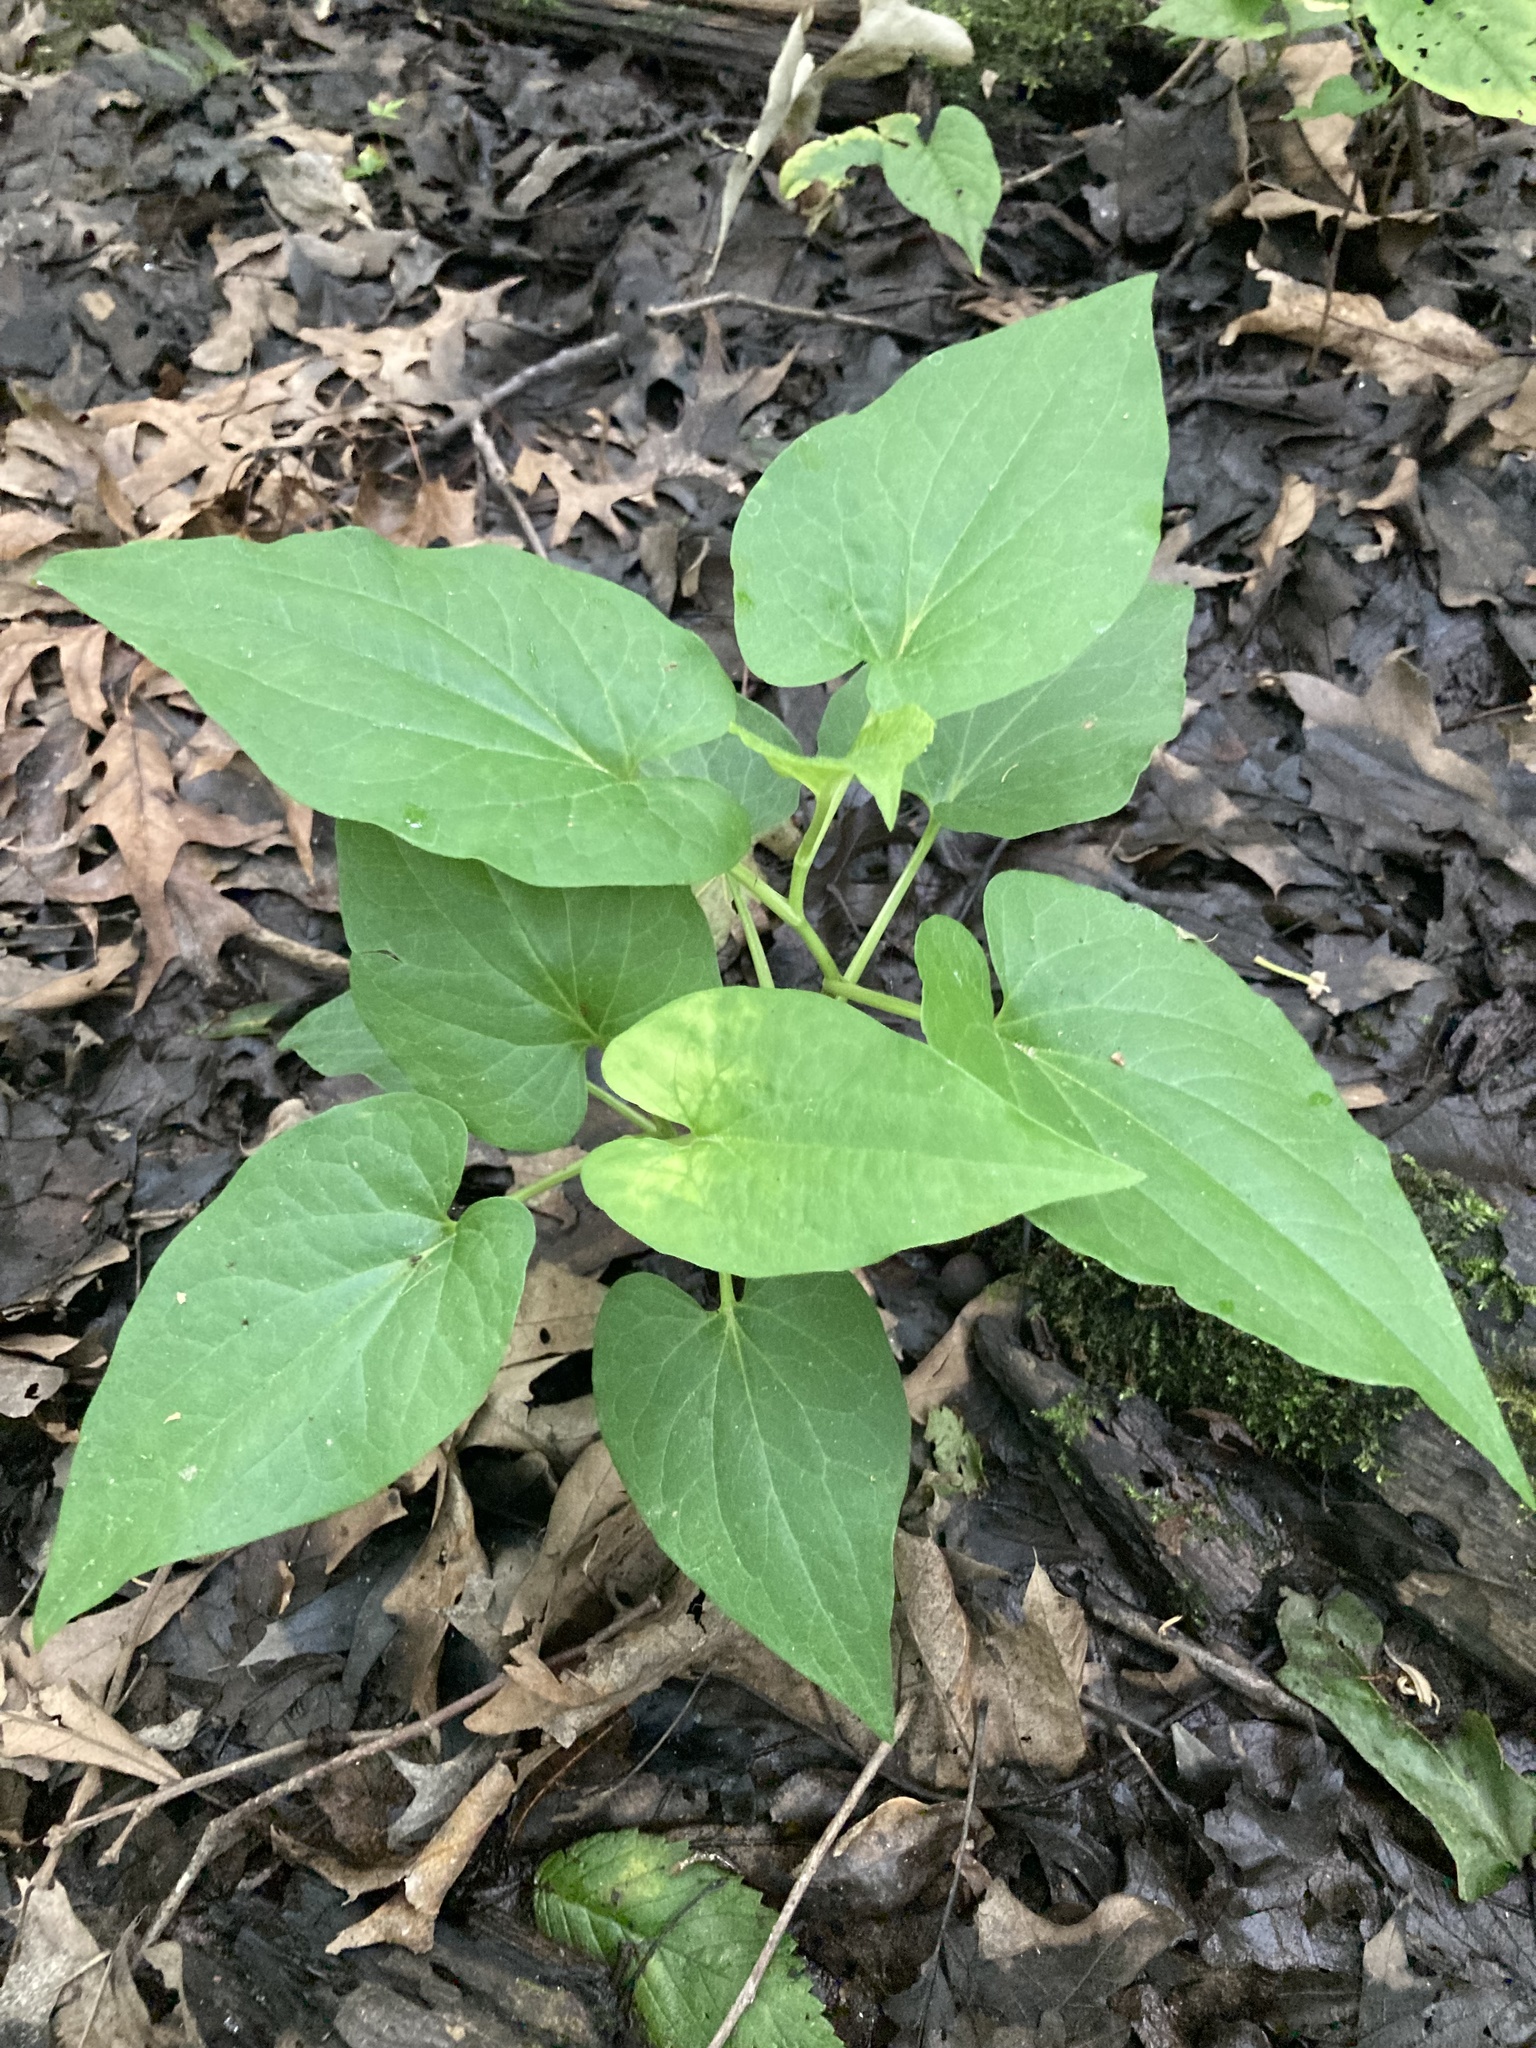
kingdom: Plantae
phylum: Tracheophyta
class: Magnoliopsida
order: Piperales
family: Saururaceae
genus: Saururus
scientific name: Saururus cernuus
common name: Lizard's-tail
